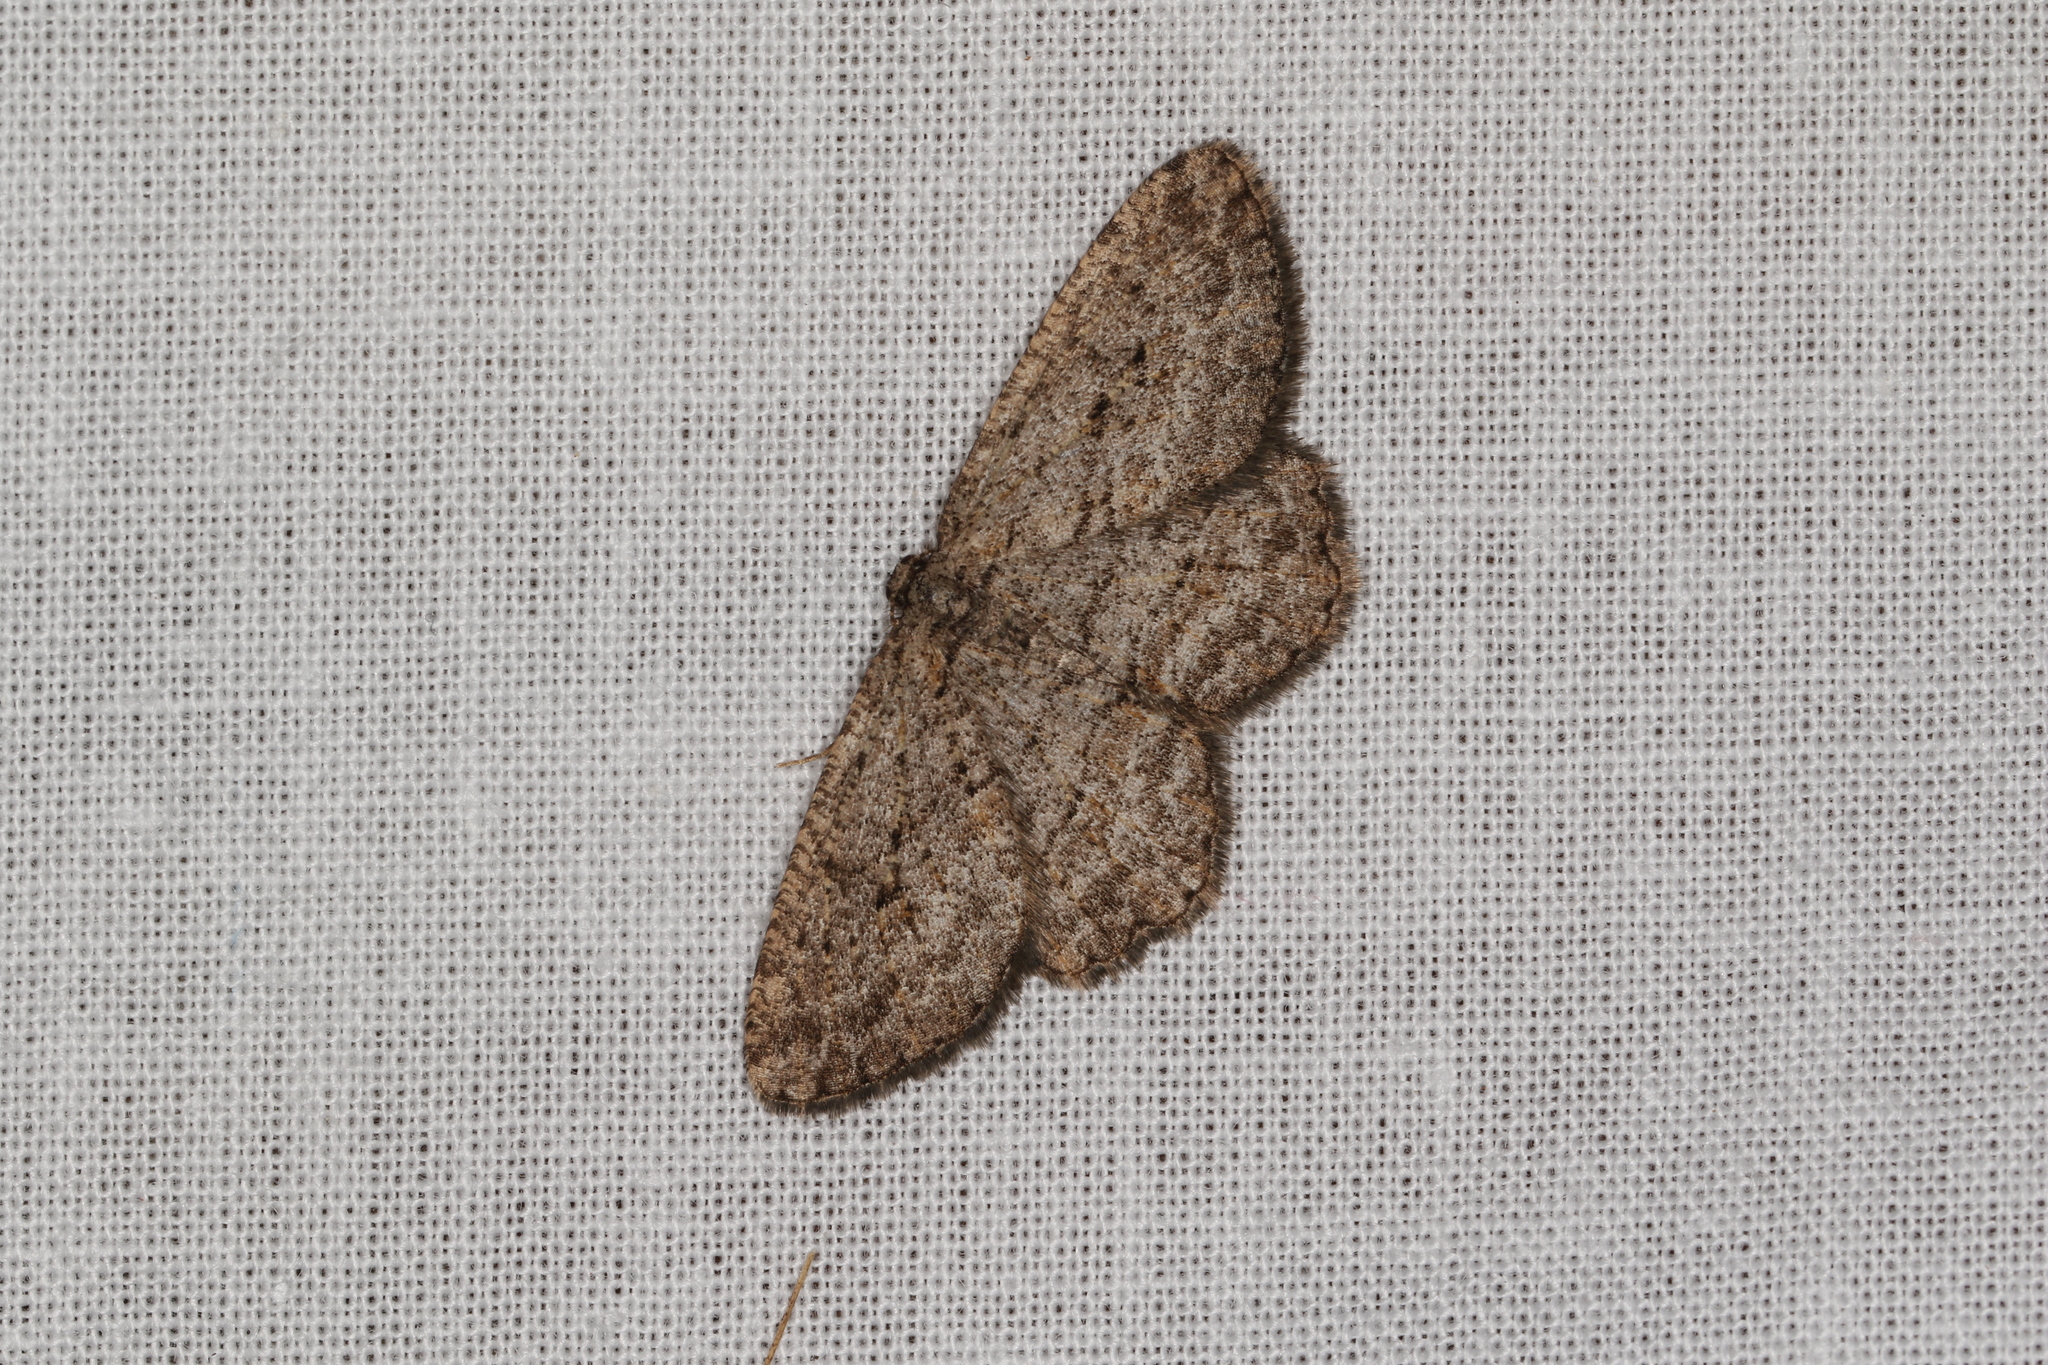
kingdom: Animalia
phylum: Arthropoda
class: Insecta
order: Lepidoptera
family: Geometridae
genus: Ectropis
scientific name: Ectropis excursaria
